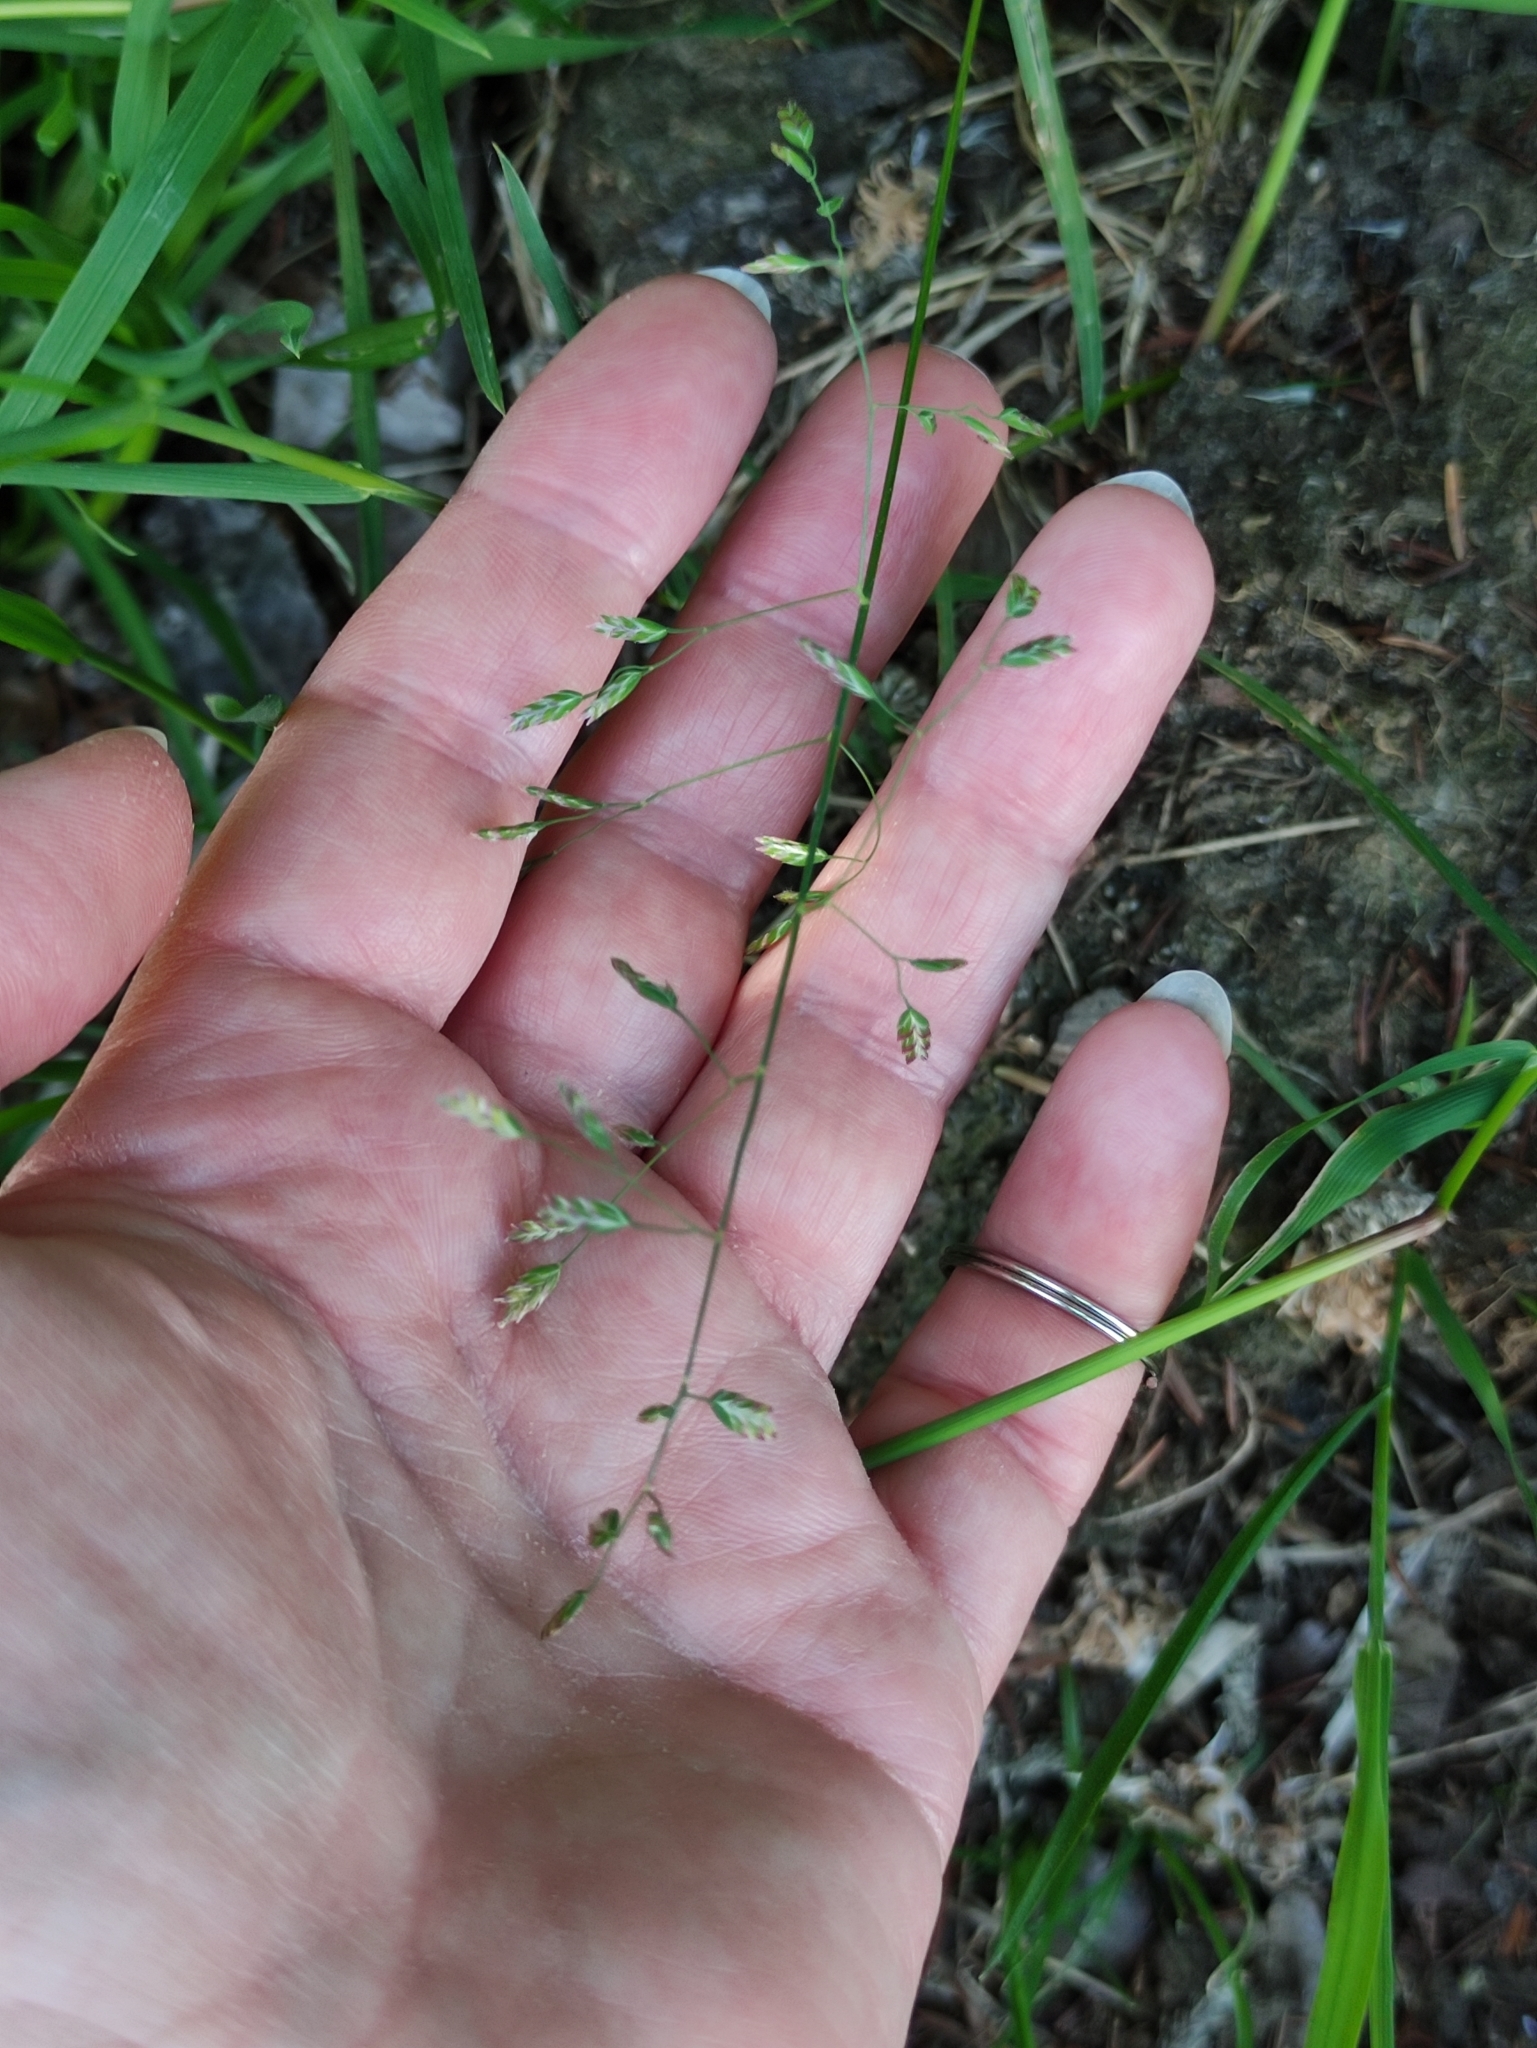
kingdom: Plantae
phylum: Tracheophyta
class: Liliopsida
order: Poales
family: Poaceae
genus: Poa
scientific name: Poa annua
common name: Annual bluegrass
